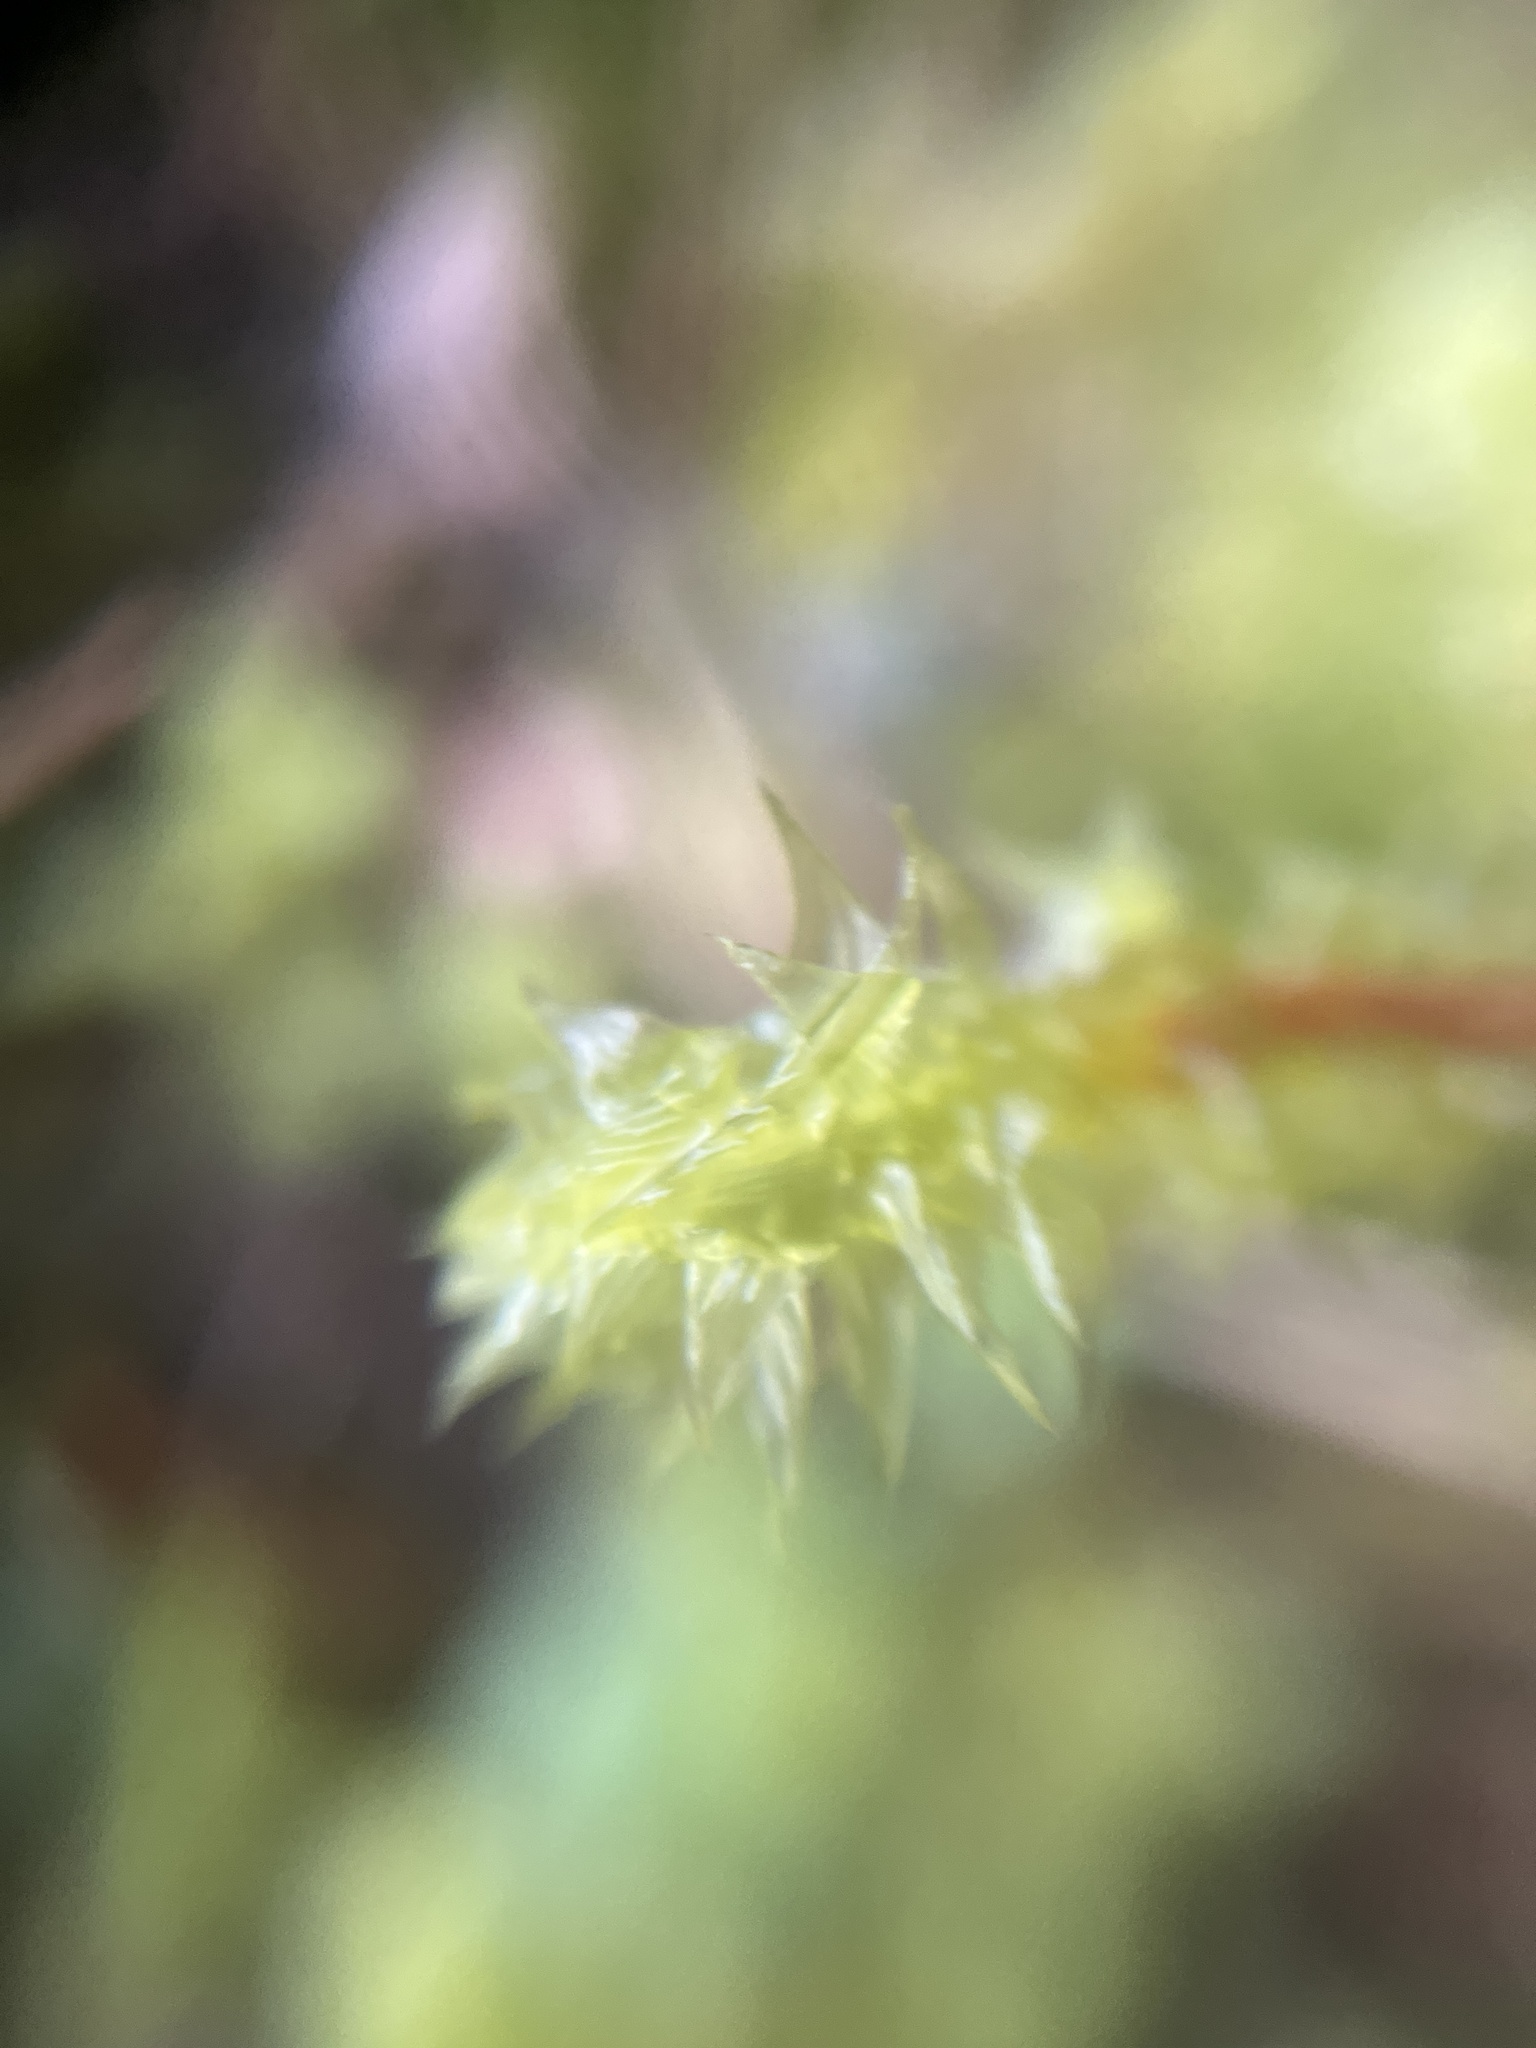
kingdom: Plantae
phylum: Bryophyta
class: Bryopsida
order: Hypnales
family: Hylocomiaceae
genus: Hylocomiadelphus
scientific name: Hylocomiadelphus triquetrus
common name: Rough goose neck moss
